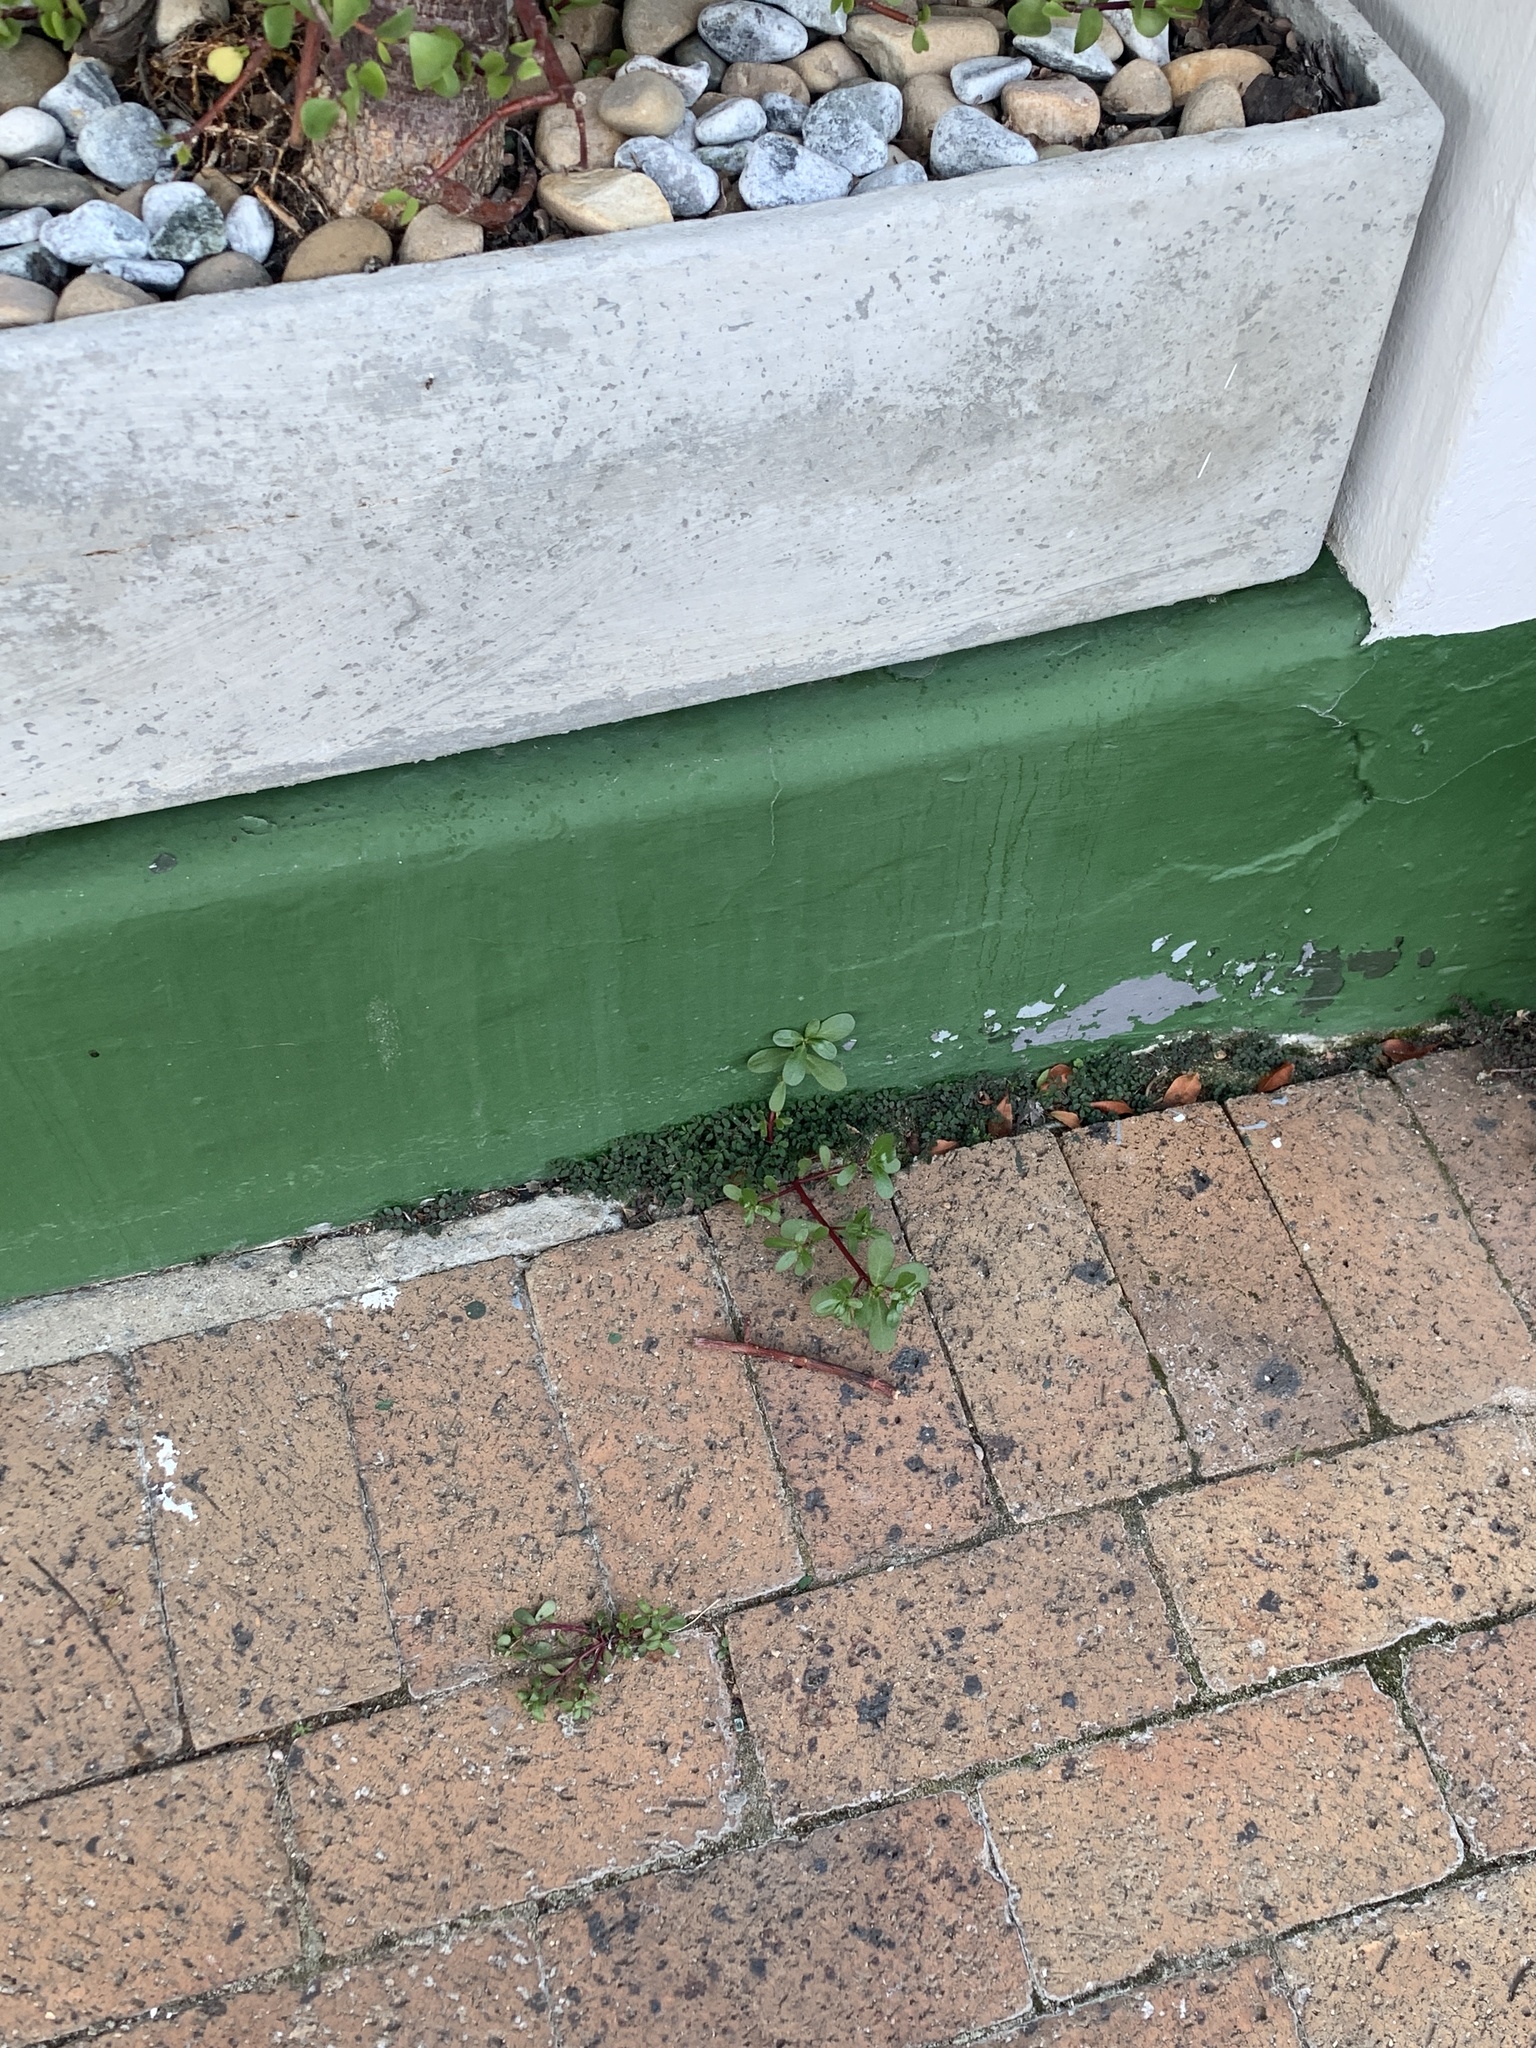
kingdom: Plantae
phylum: Tracheophyta
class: Magnoliopsida
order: Caryophyllales
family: Portulacaceae
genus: Portulaca
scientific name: Portulaca oleracea
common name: Common purslane
